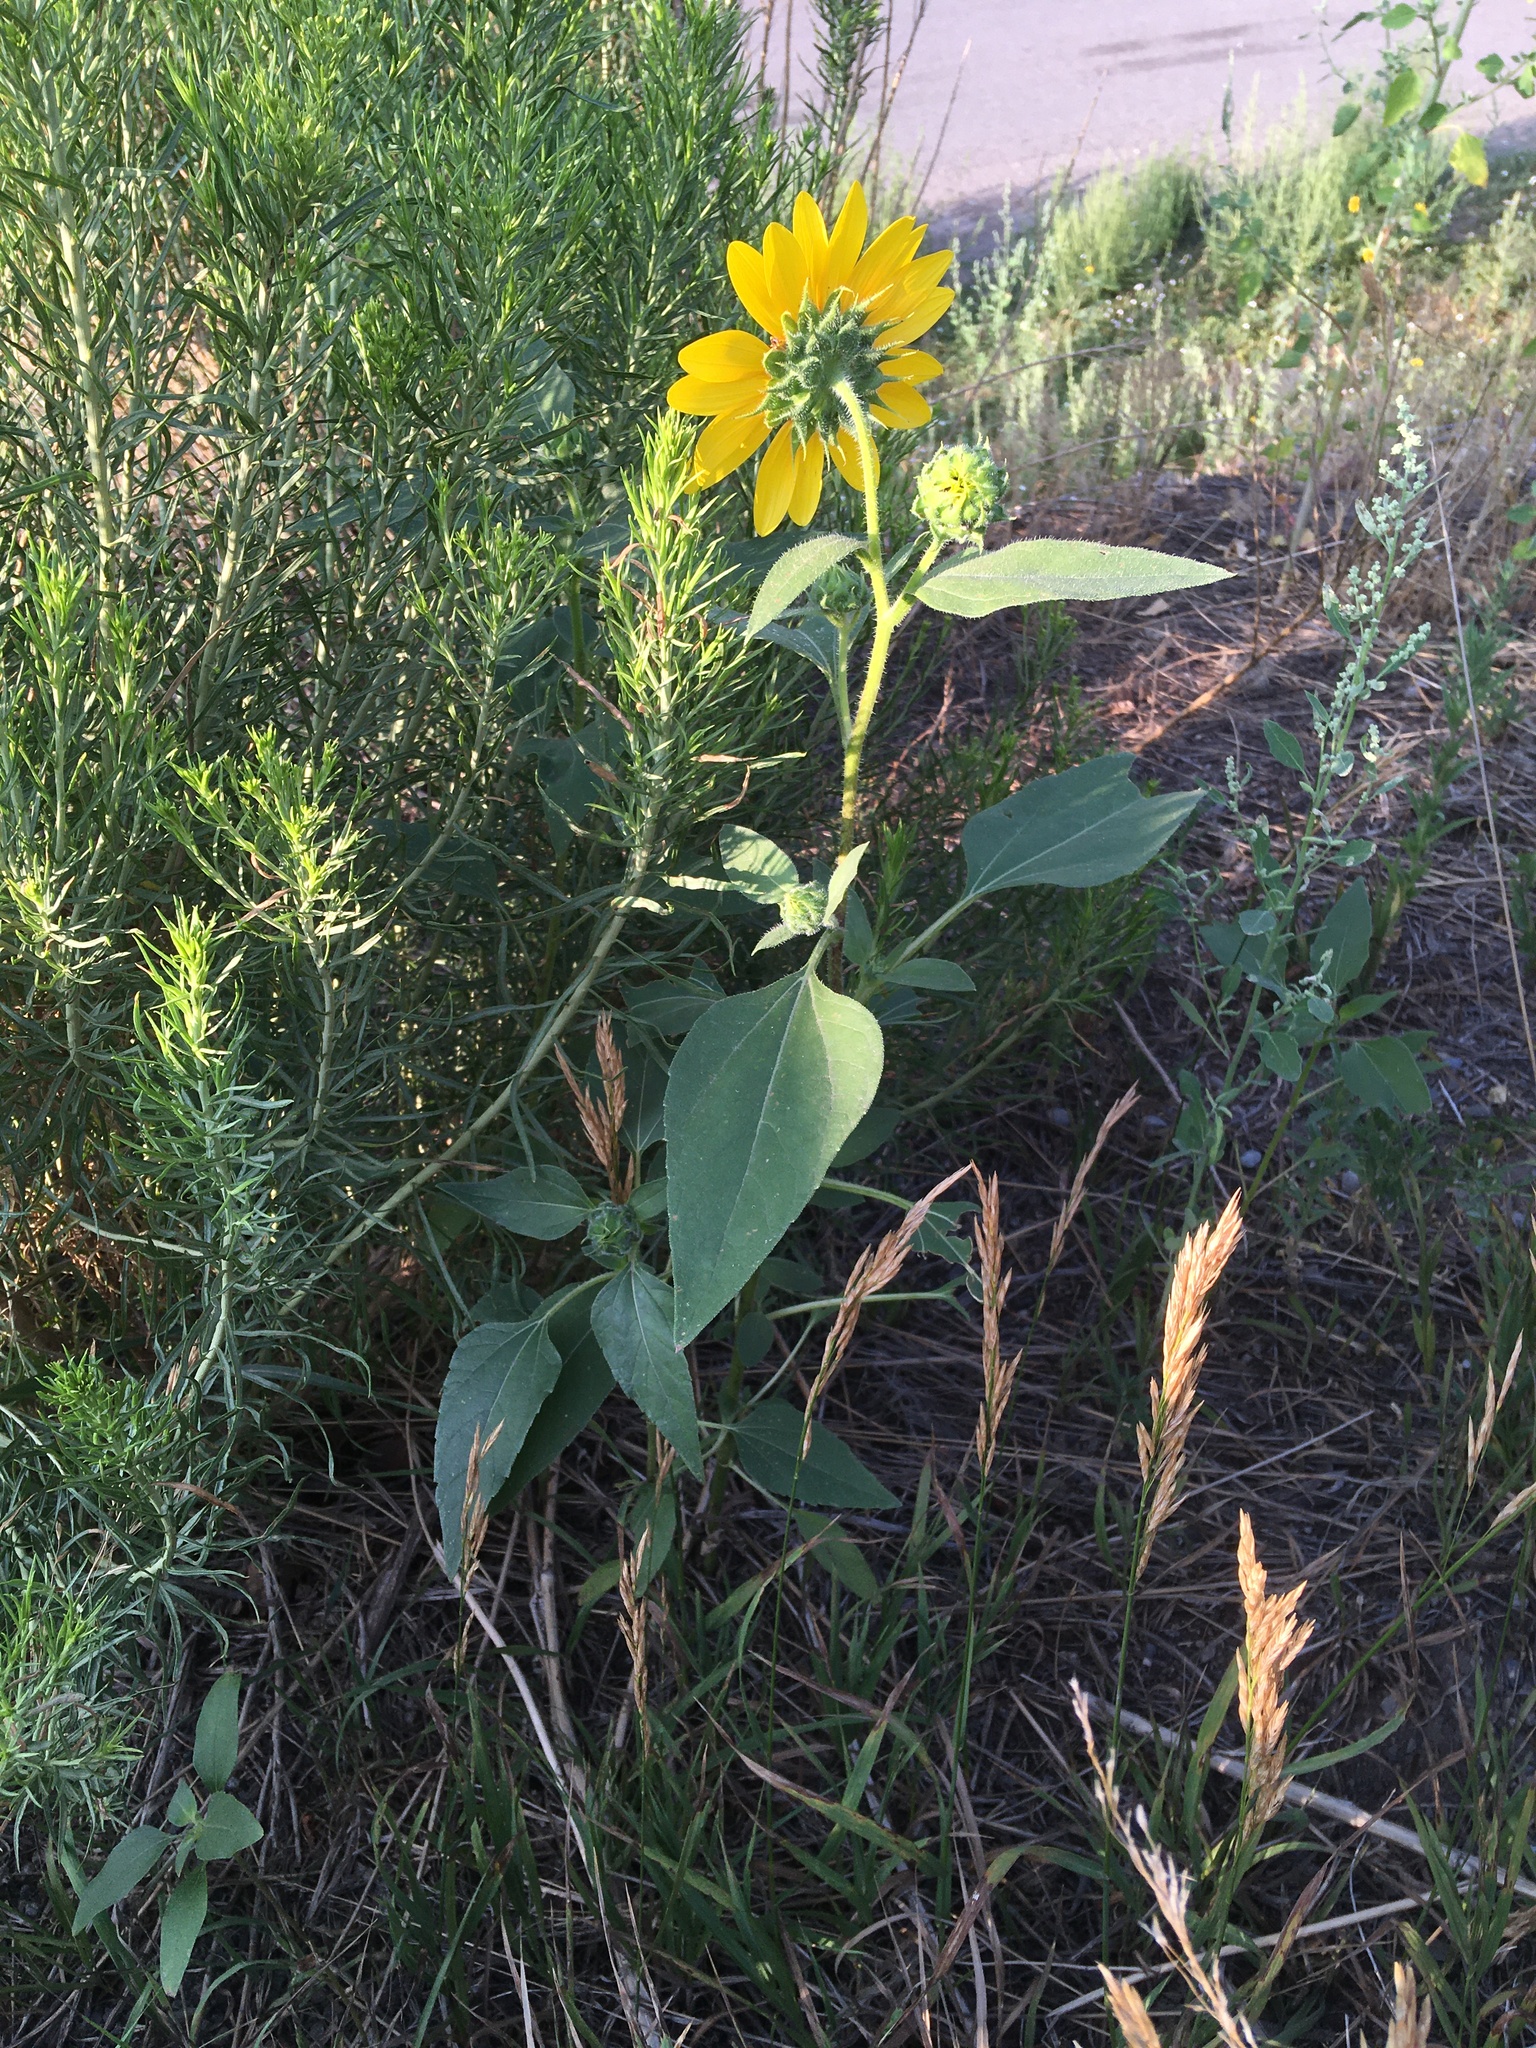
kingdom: Plantae
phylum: Tracheophyta
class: Magnoliopsida
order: Asterales
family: Asteraceae
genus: Helianthus
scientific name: Helianthus annuus
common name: Sunflower
